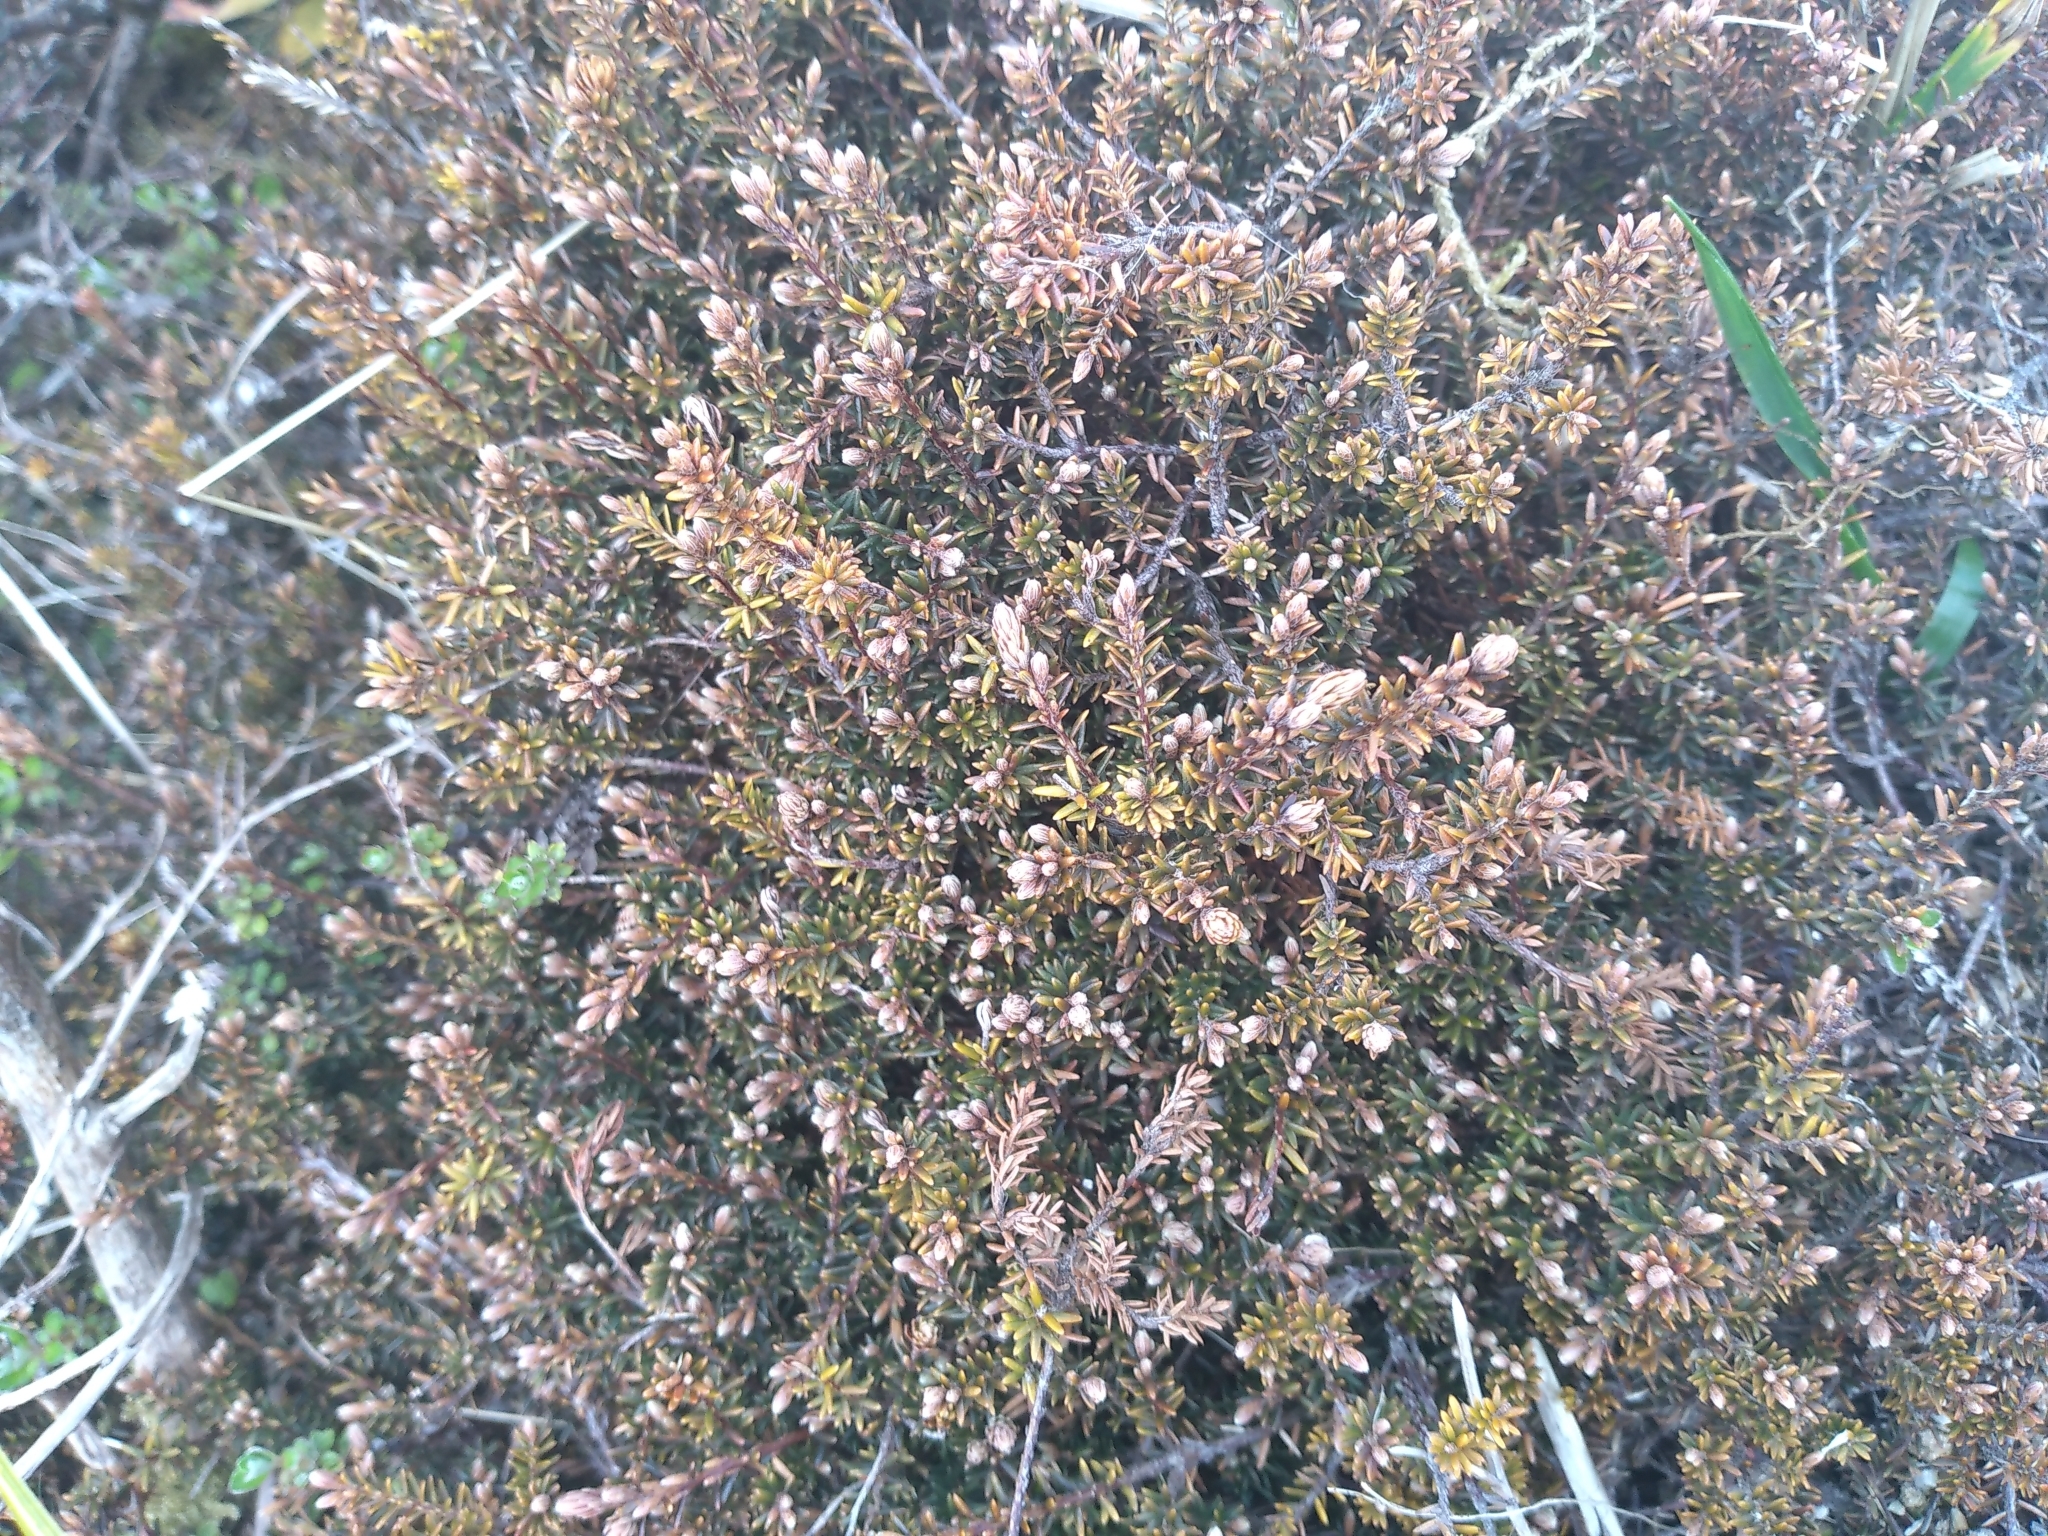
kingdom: Plantae
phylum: Tracheophyta
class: Magnoliopsida
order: Ericales
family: Ericaceae
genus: Androstoma
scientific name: Androstoma empetrifolia
